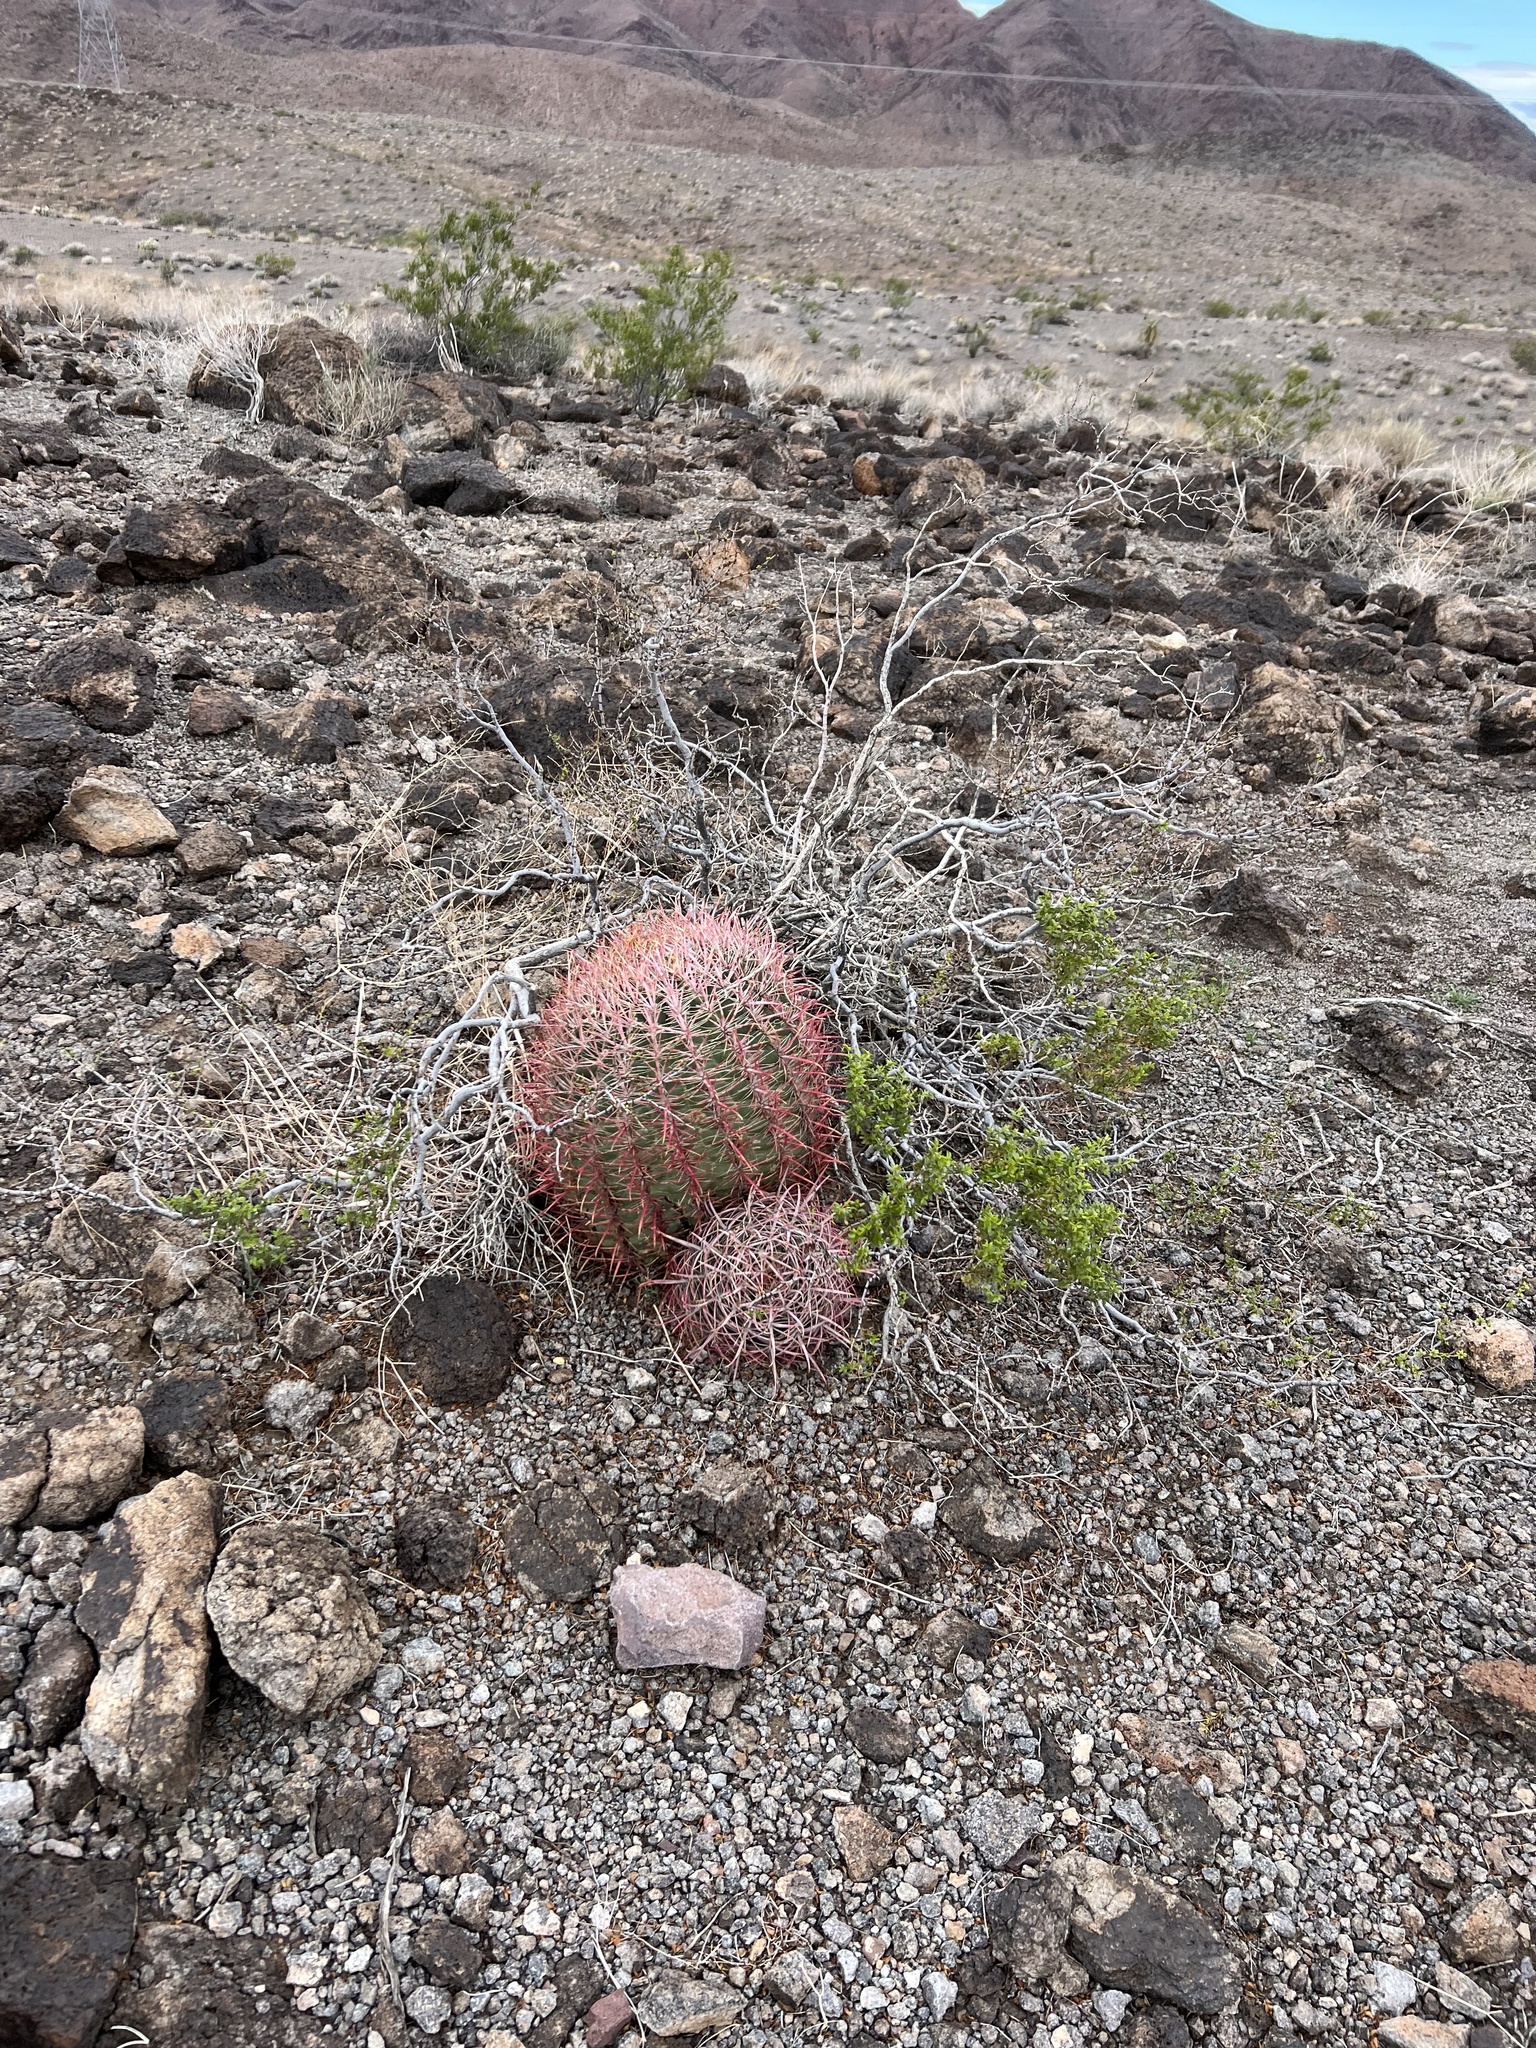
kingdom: Plantae
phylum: Tracheophyta
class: Magnoliopsida
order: Caryophyllales
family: Cactaceae
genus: Ferocactus
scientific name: Ferocactus cylindraceus
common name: California barrel cactus
